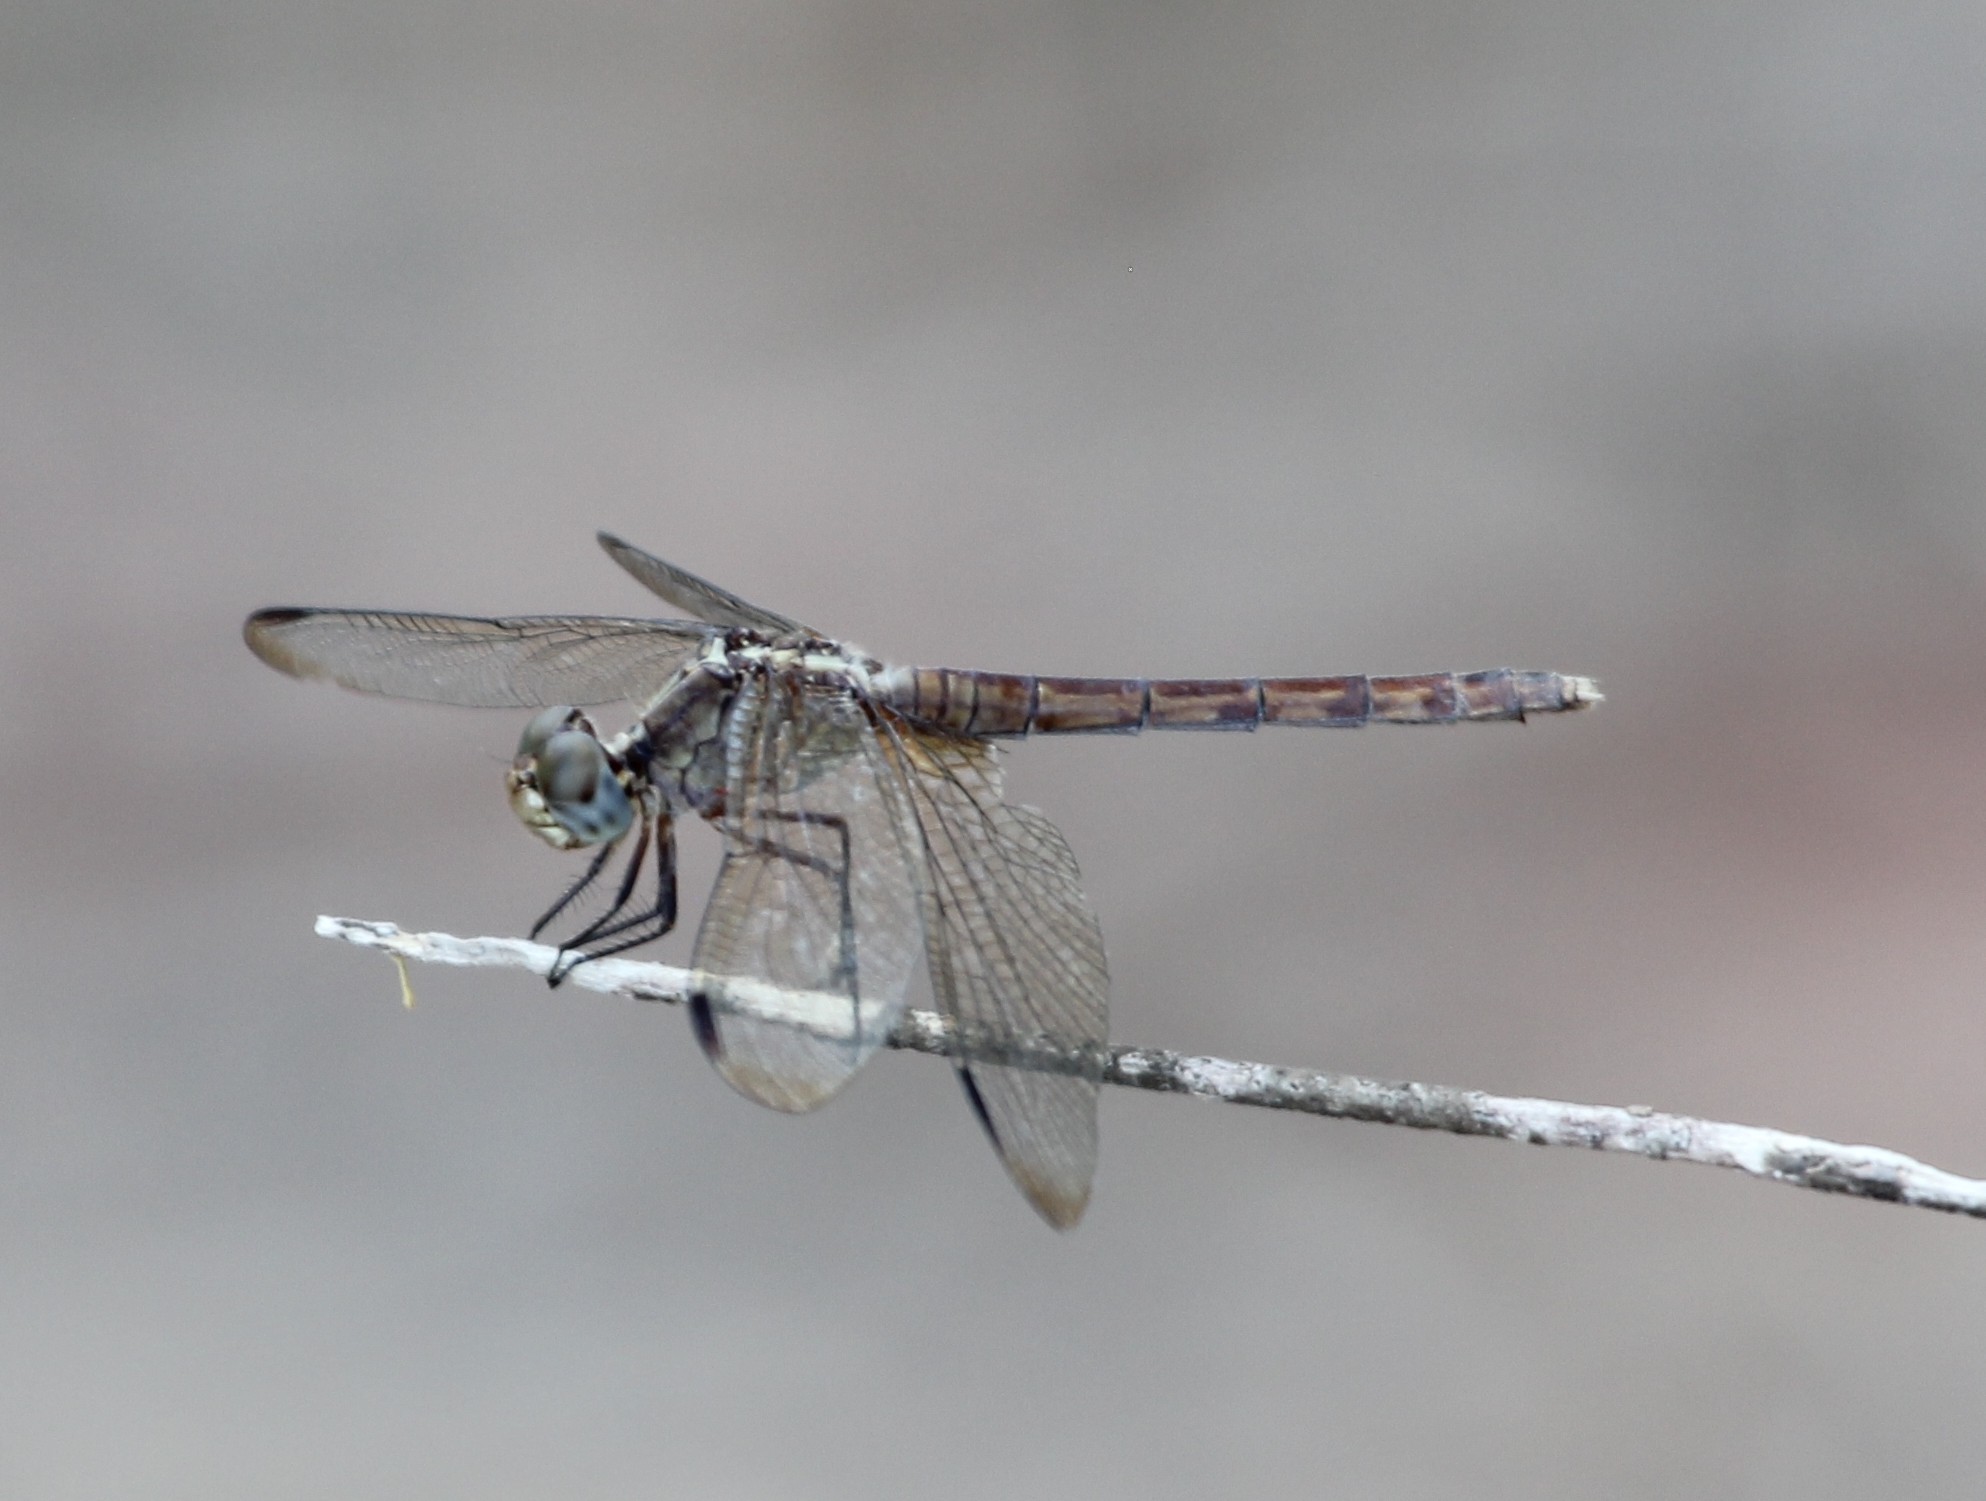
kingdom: Animalia
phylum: Arthropoda
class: Insecta
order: Odonata
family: Libellulidae
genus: Erythrodiplax
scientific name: Erythrodiplax umbrata
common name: Band-winged dragonlet
